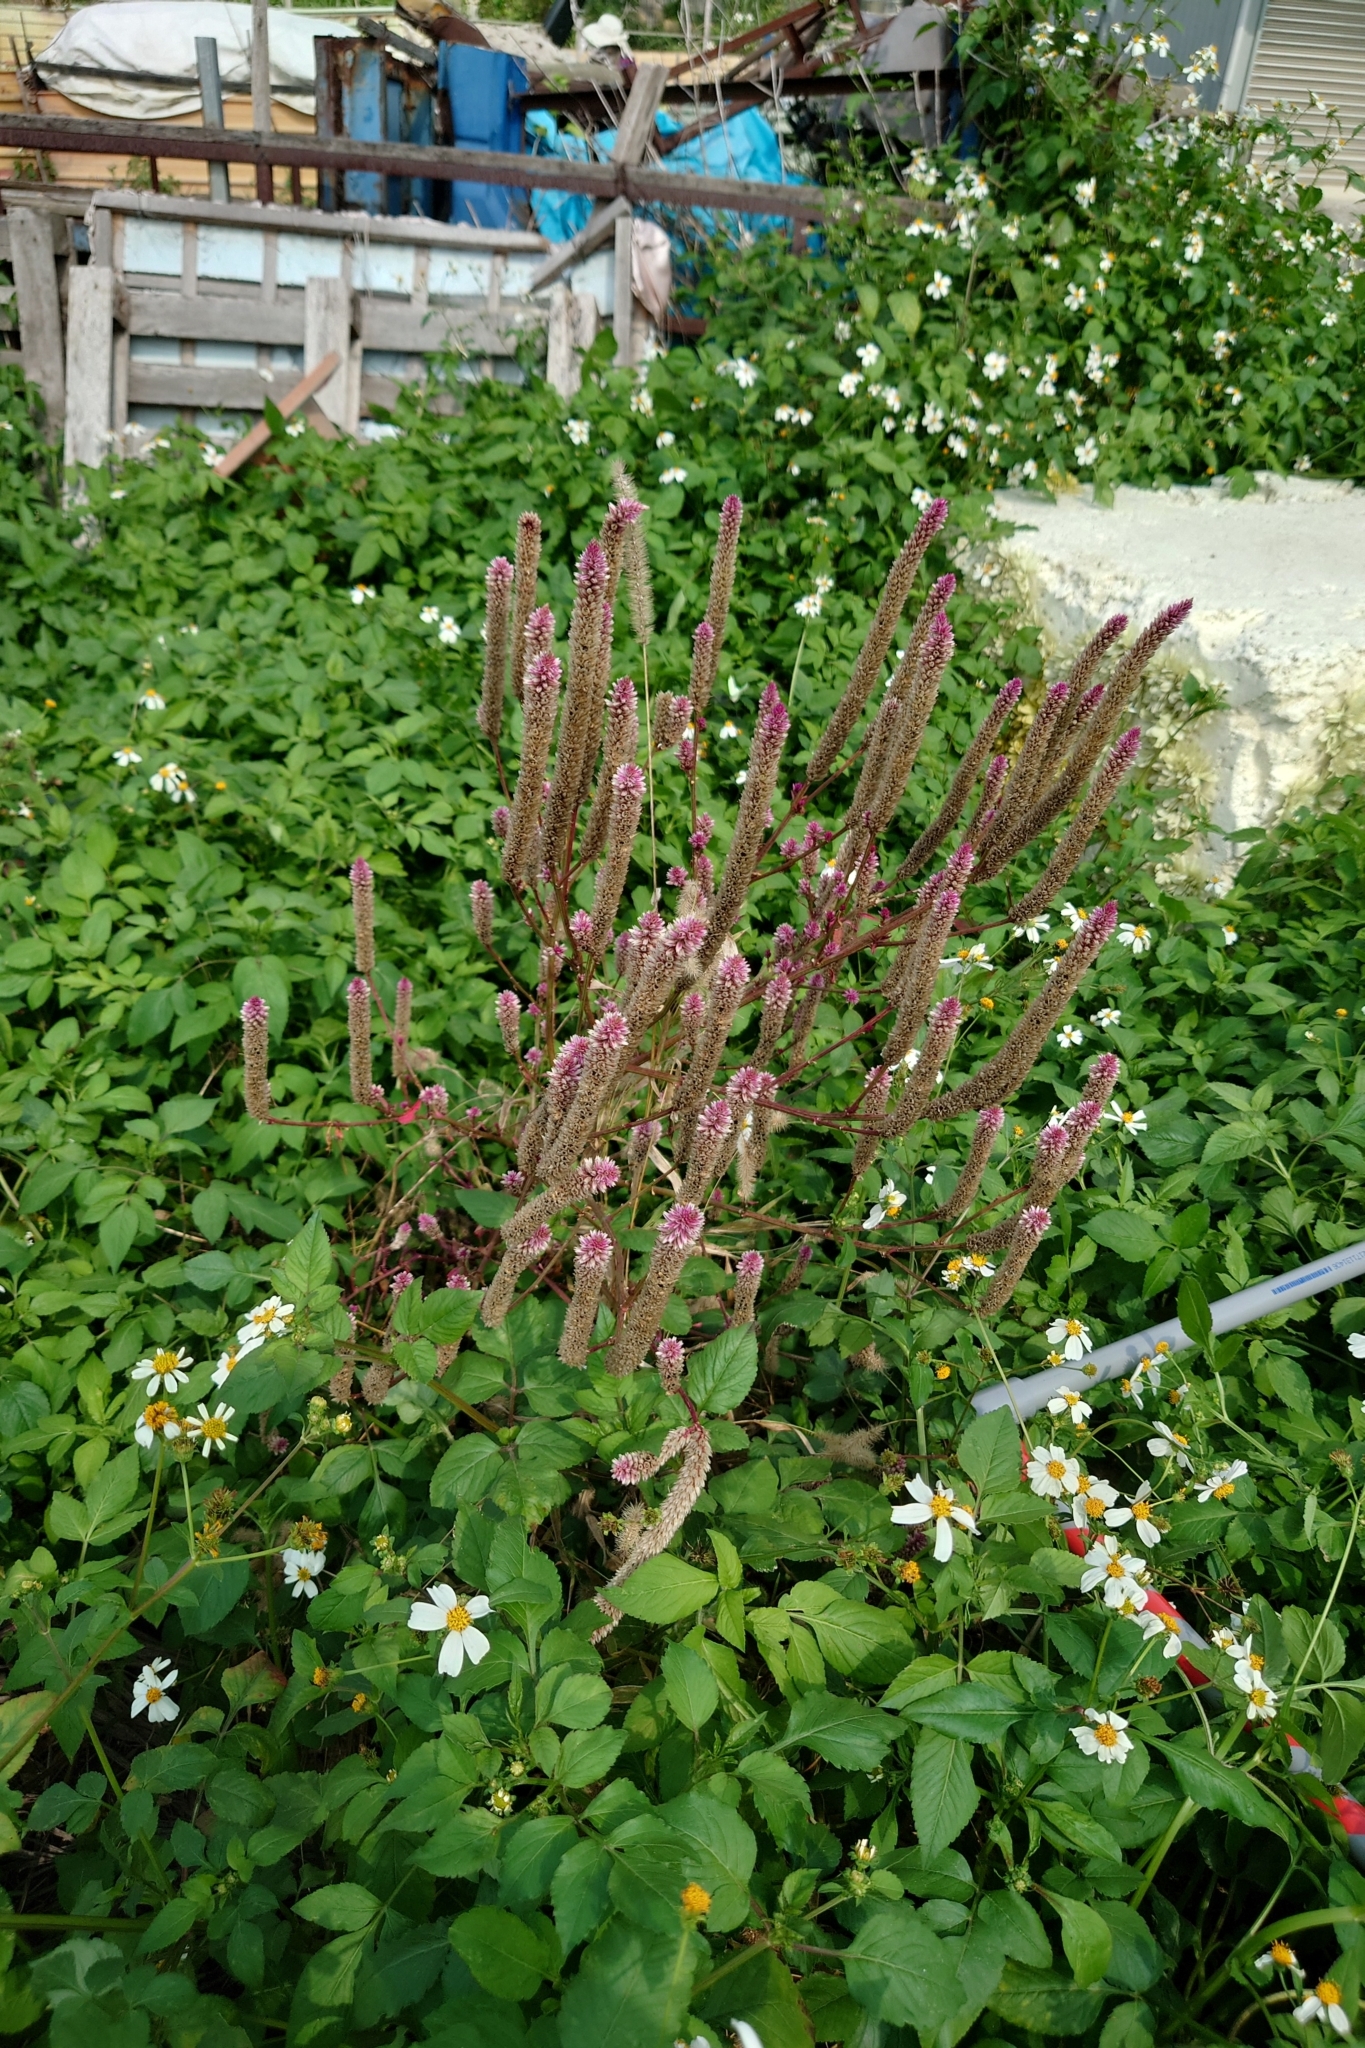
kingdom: Plantae
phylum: Tracheophyta
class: Magnoliopsida
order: Caryophyllales
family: Amaranthaceae
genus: Celosia
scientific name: Celosia argentea
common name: Feather cockscomb
